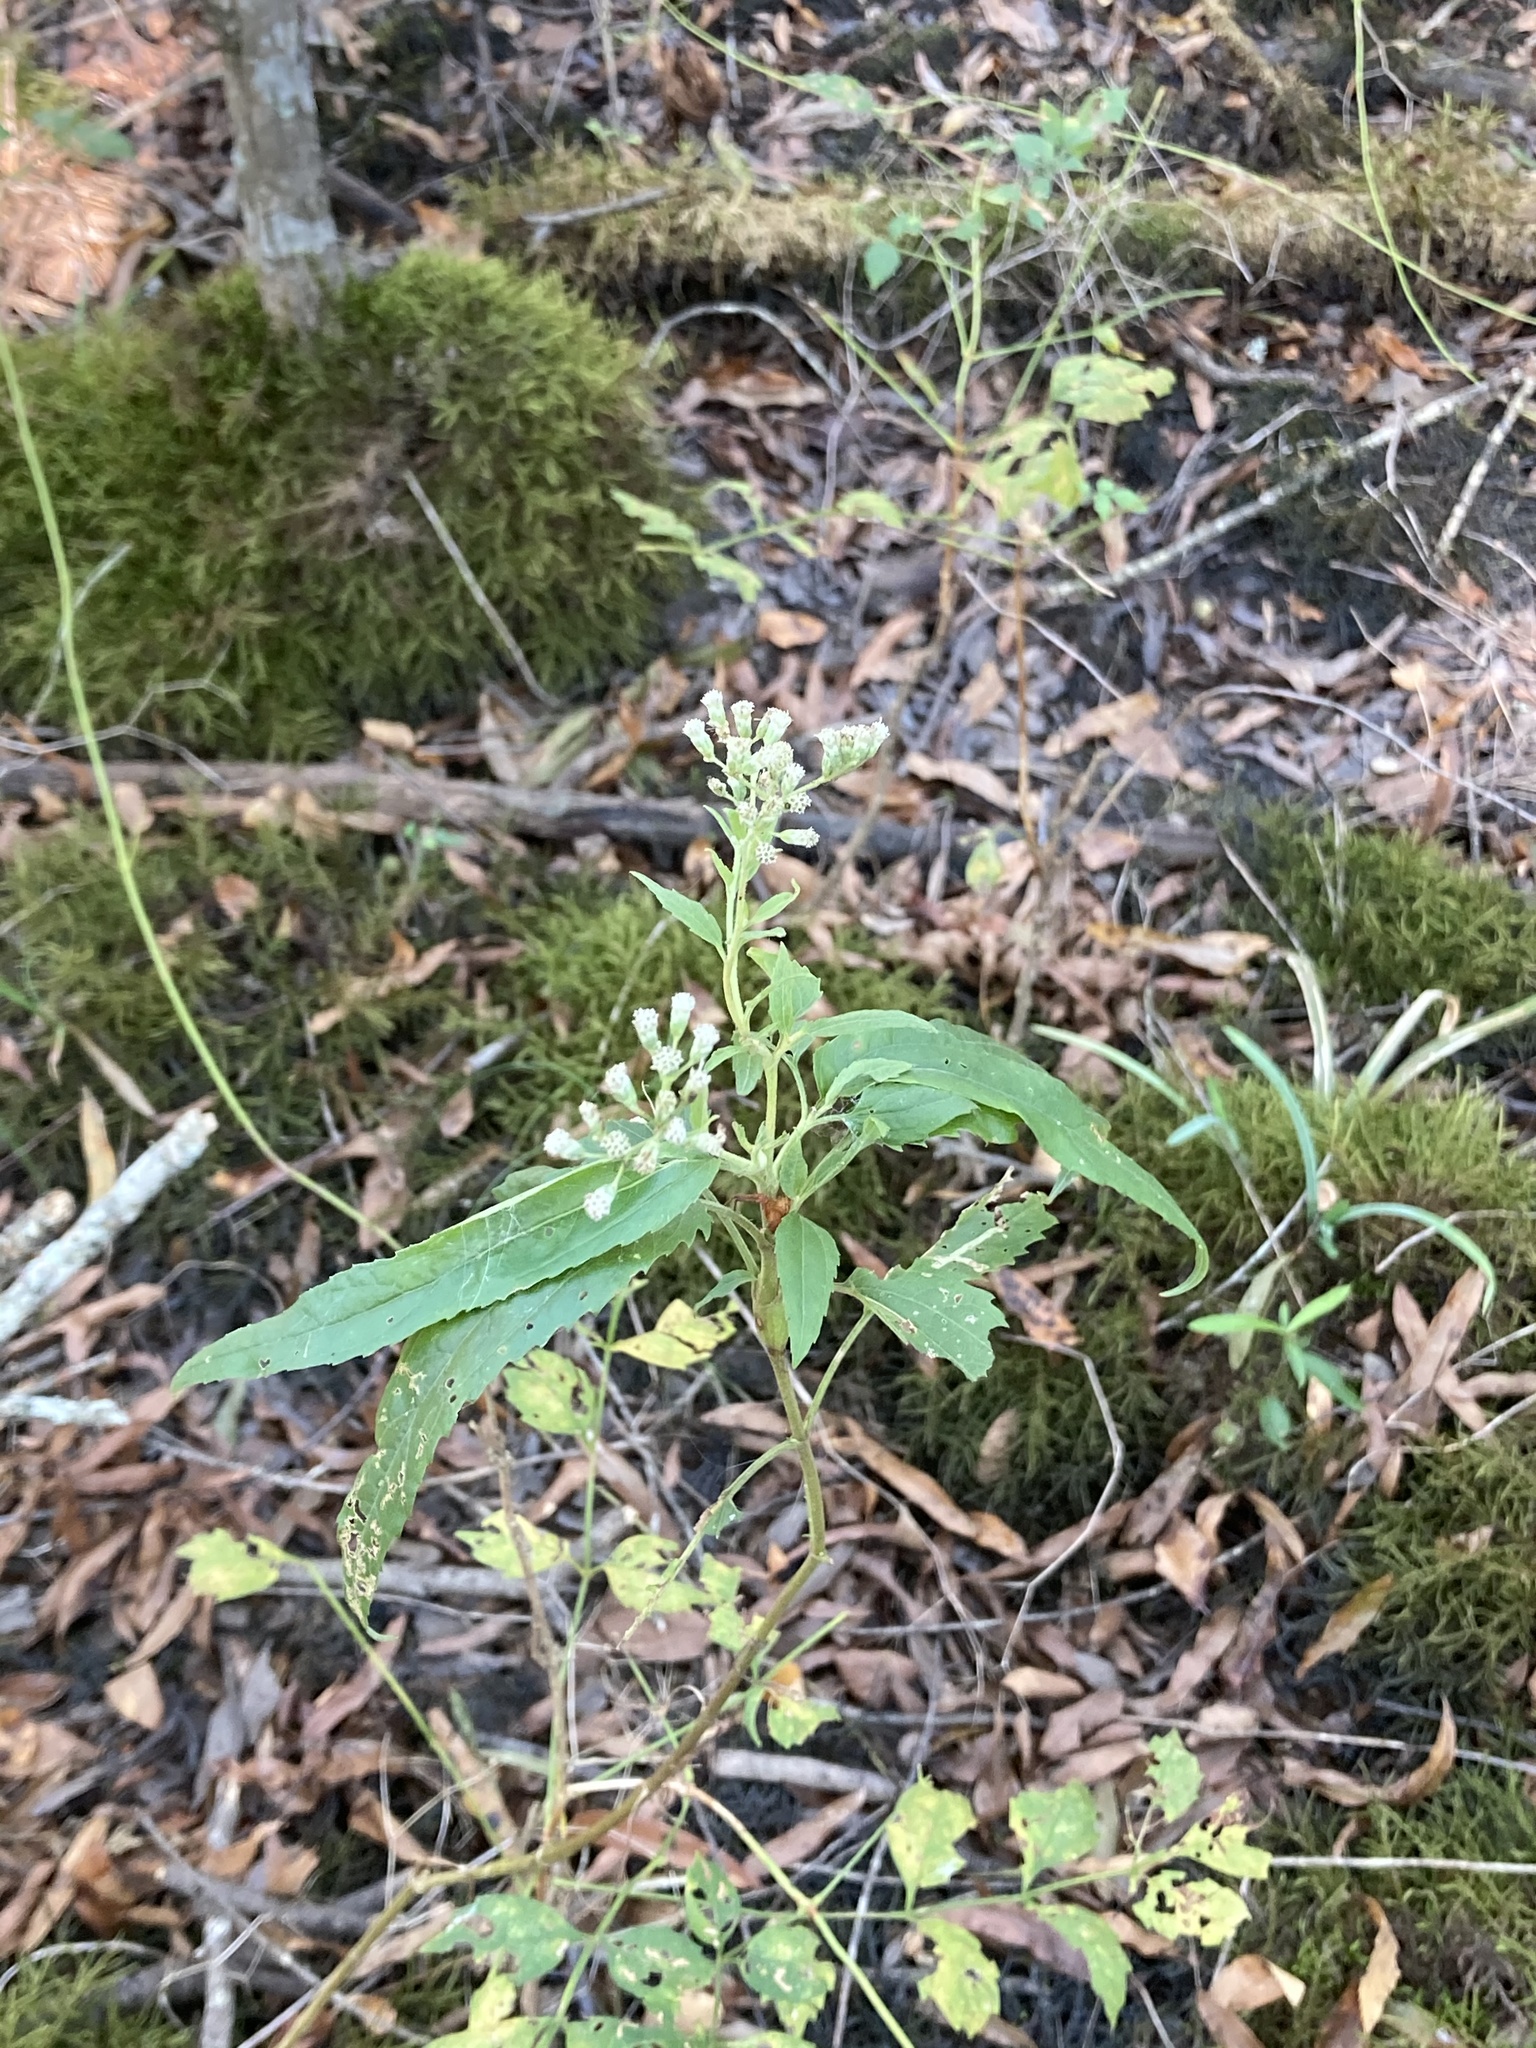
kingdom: Plantae
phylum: Tracheophyta
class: Magnoliopsida
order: Asterales
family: Asteraceae
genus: Eupatorium
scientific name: Eupatorium serotinum
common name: Late boneset
